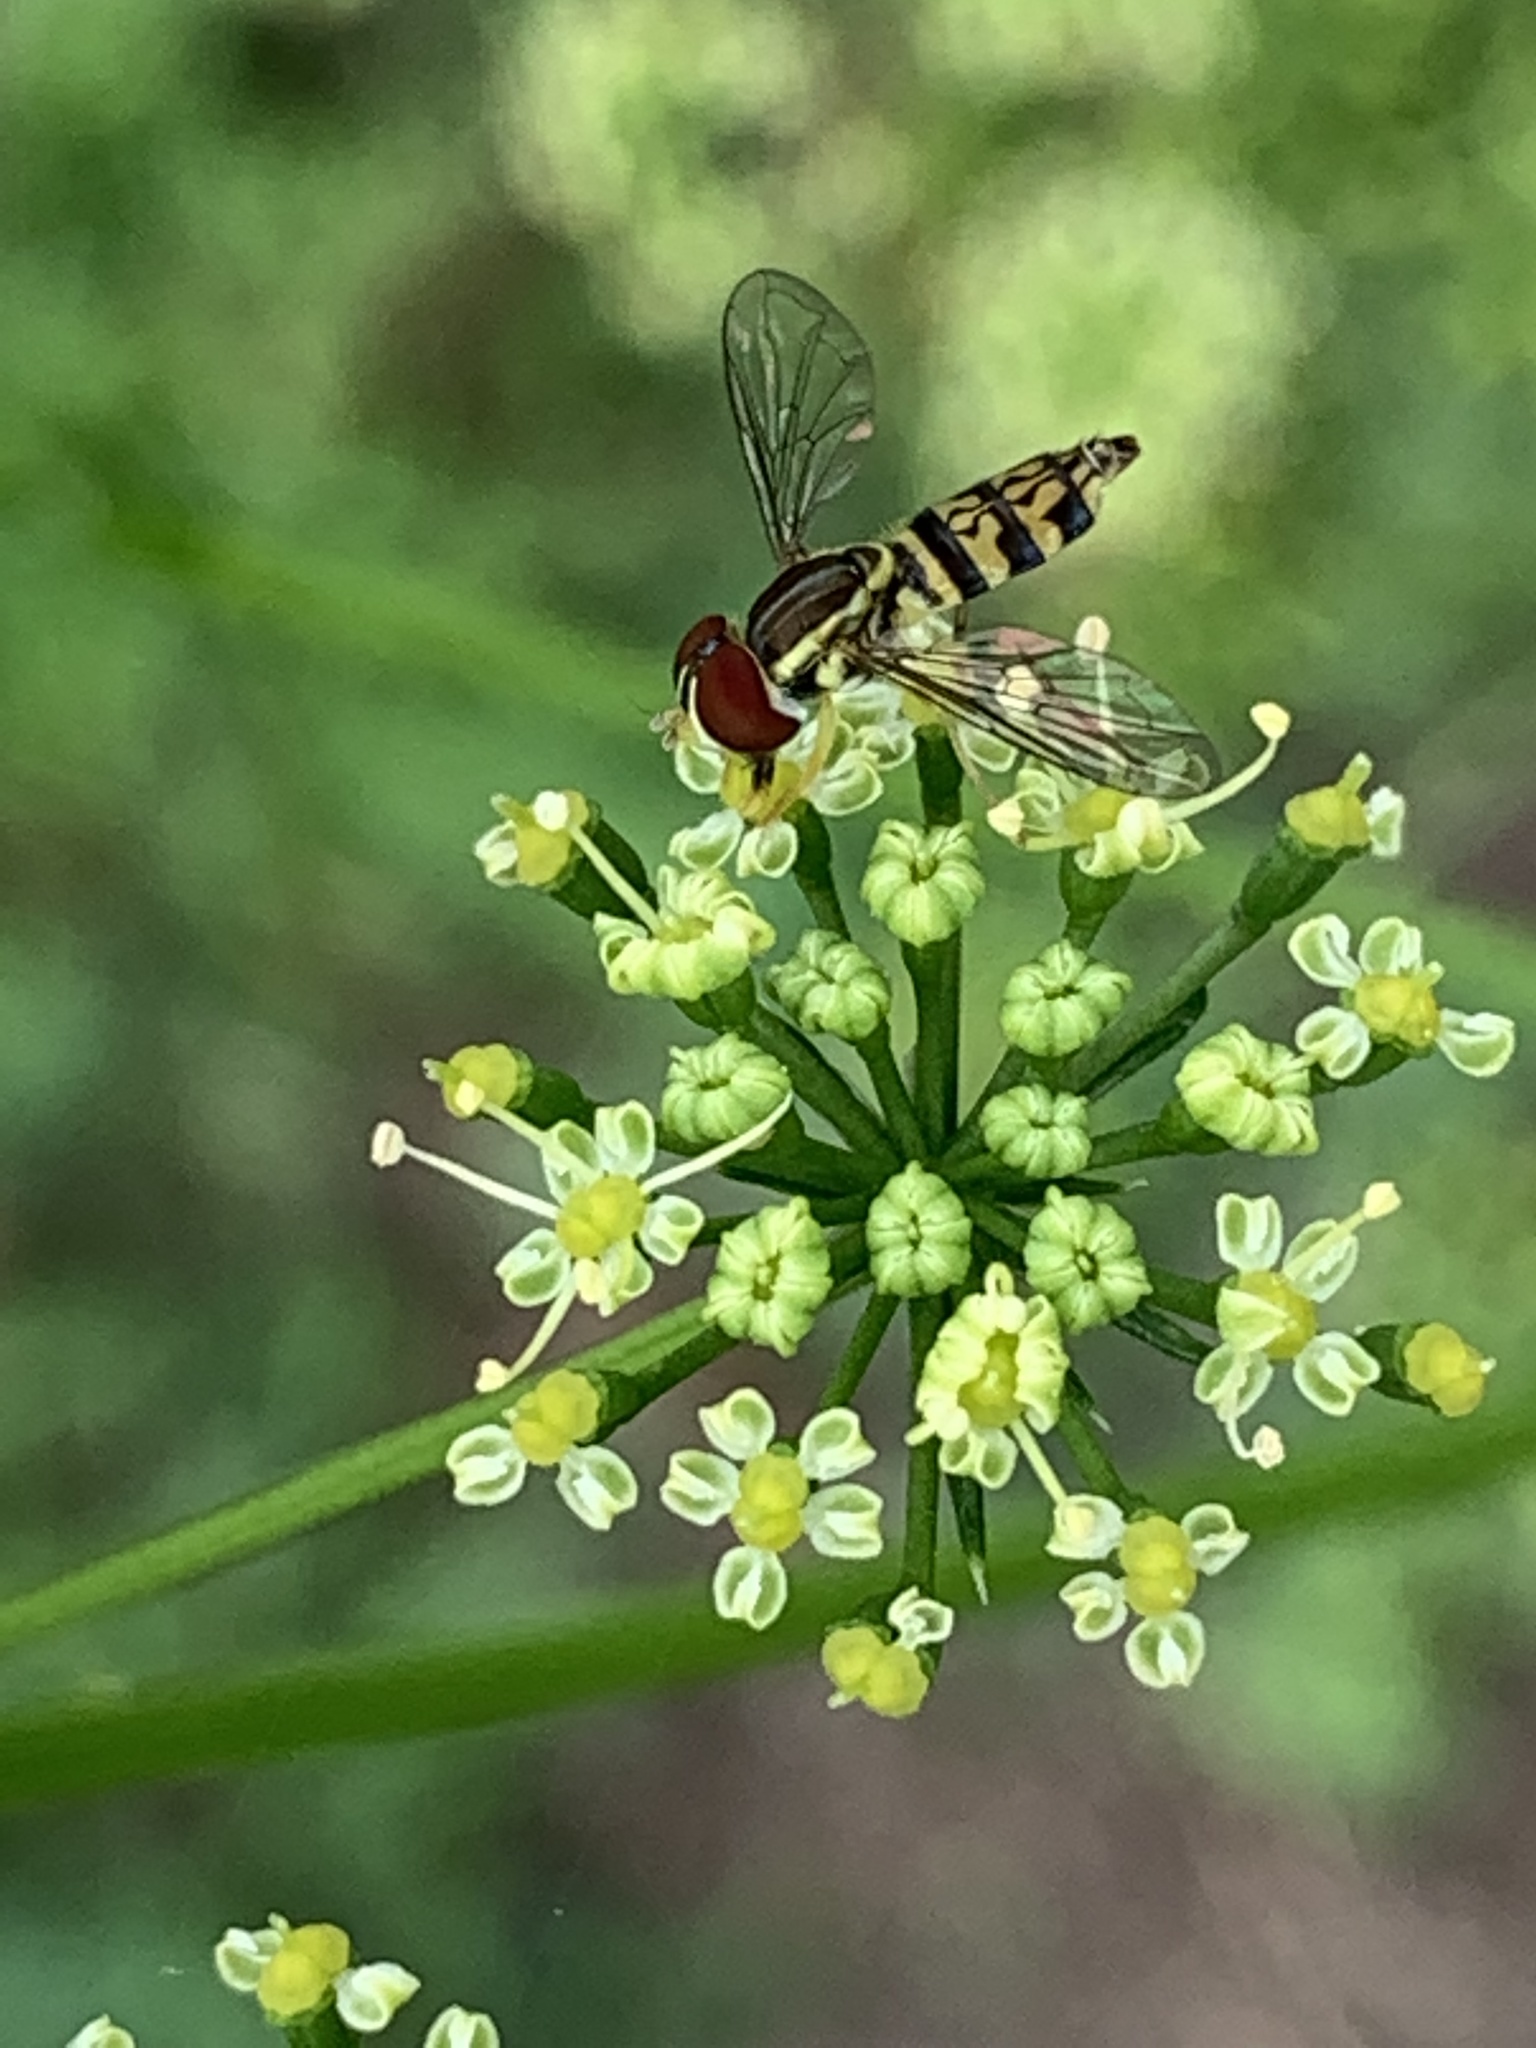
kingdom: Animalia
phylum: Arthropoda
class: Insecta
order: Diptera
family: Syrphidae
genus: Toxomerus
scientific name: Toxomerus geminatus
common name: Eastern calligrapher
